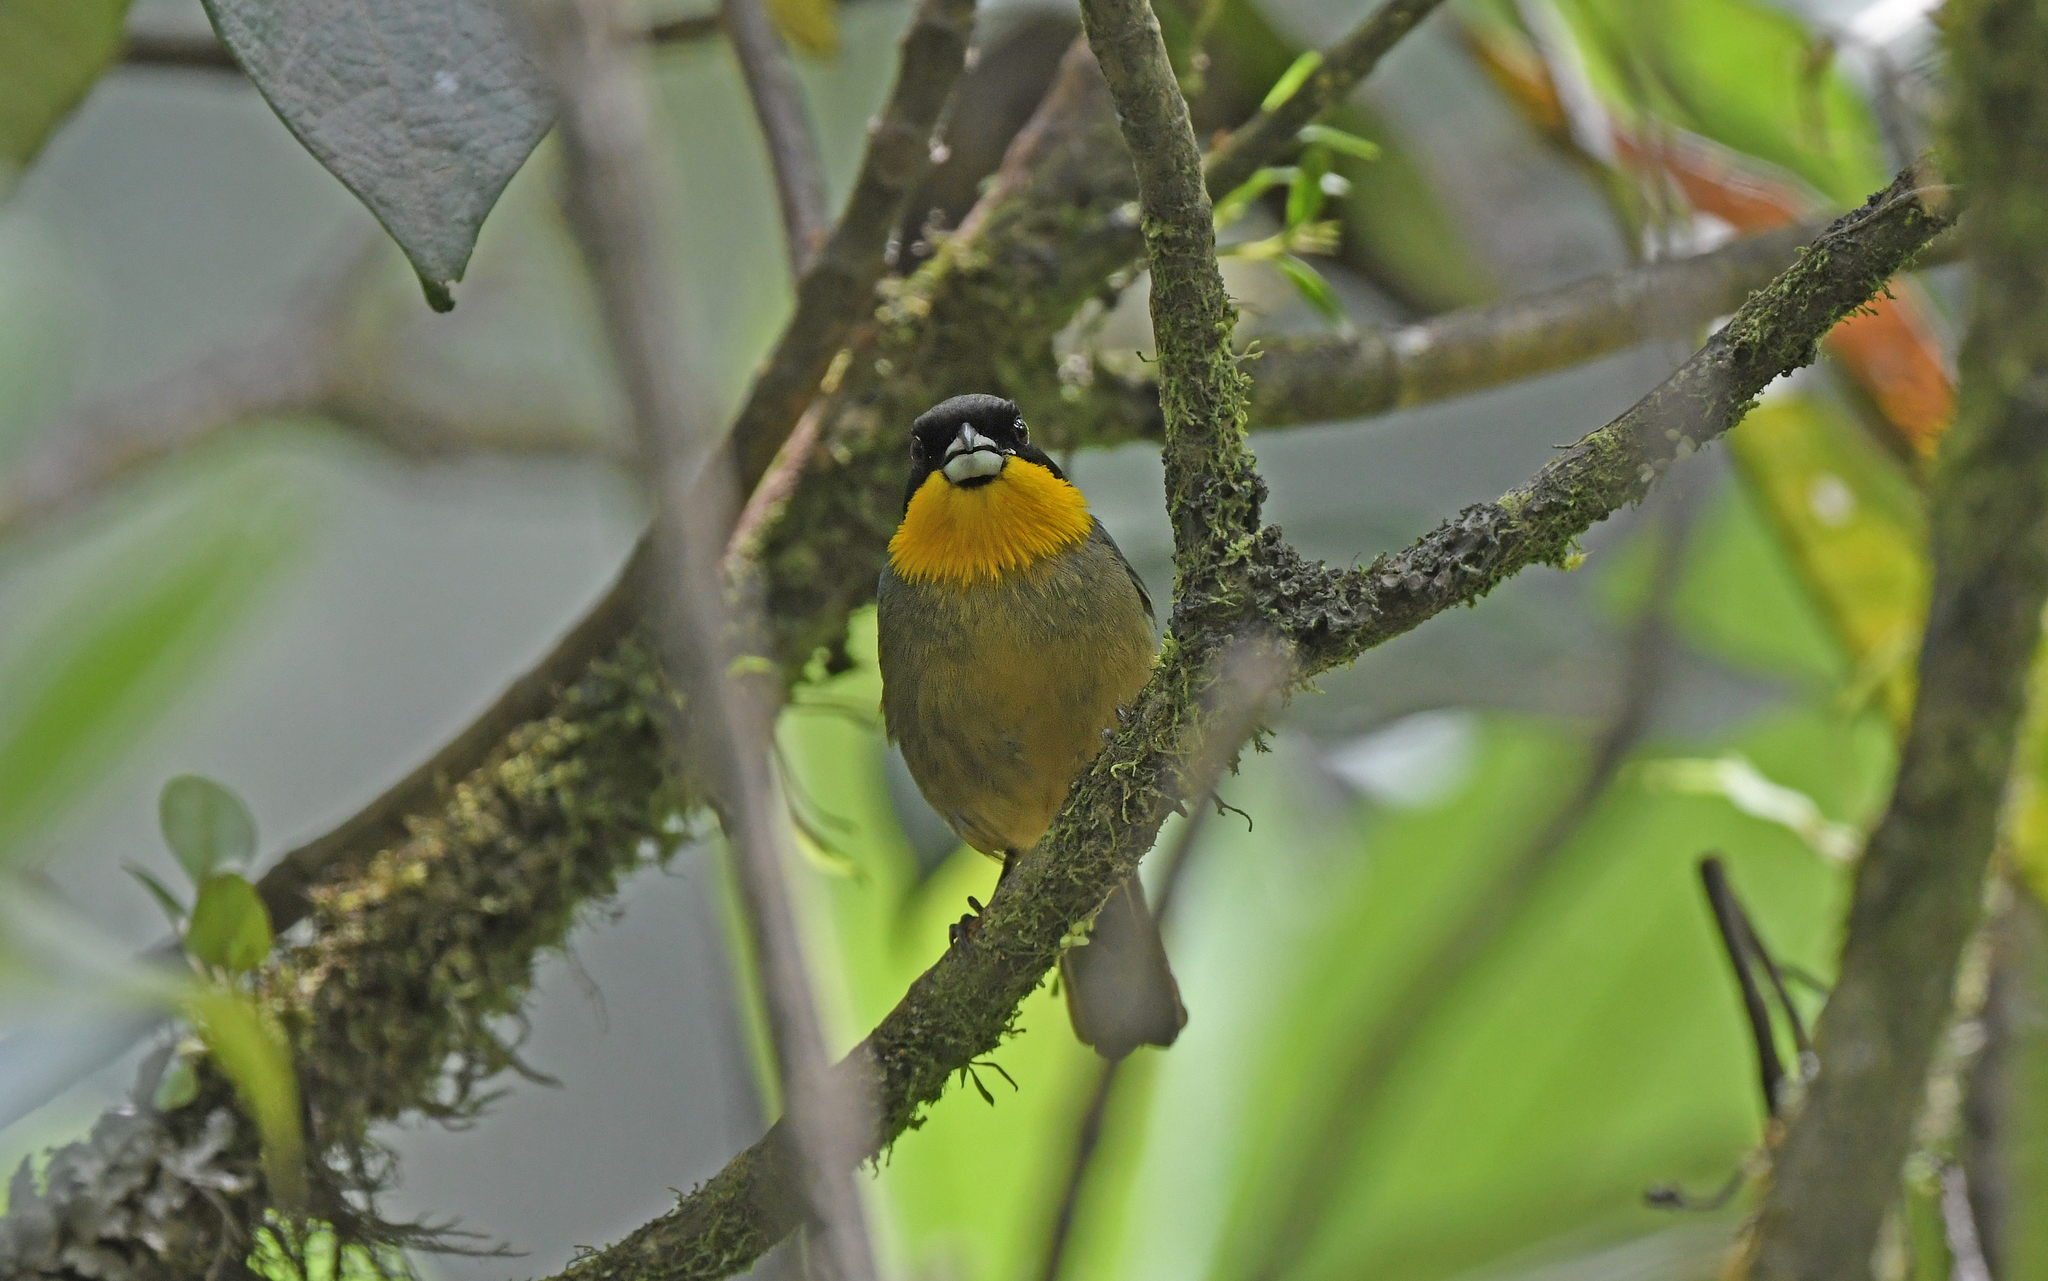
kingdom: Animalia
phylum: Chordata
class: Aves
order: Passeriformes
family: Thraupidae
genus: Iridosornis
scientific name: Iridosornis analis
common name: Yellow-throated tanager
